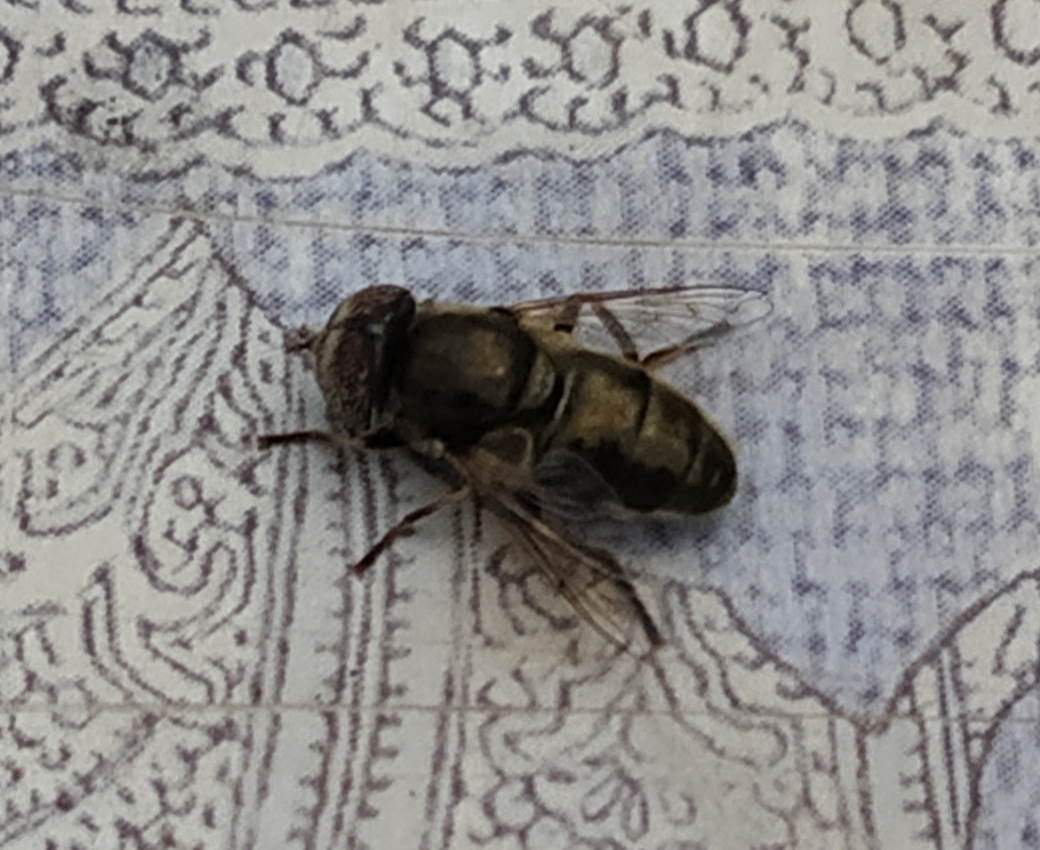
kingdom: Animalia
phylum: Arthropoda
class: Insecta
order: Diptera
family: Syrphidae
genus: Eristalinus
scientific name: Eristalinus aeneus
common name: Syrphid fly
